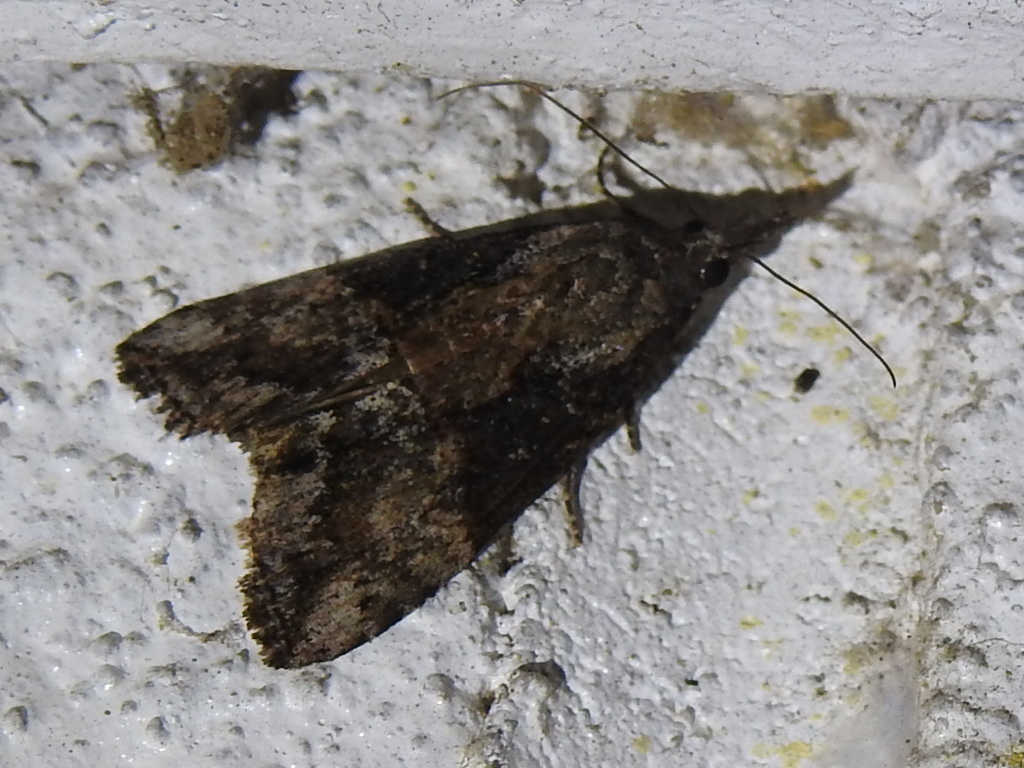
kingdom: Animalia
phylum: Arthropoda
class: Insecta
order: Lepidoptera
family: Erebidae
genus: Hypena
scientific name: Hypena scabra
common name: Green cloverworm
